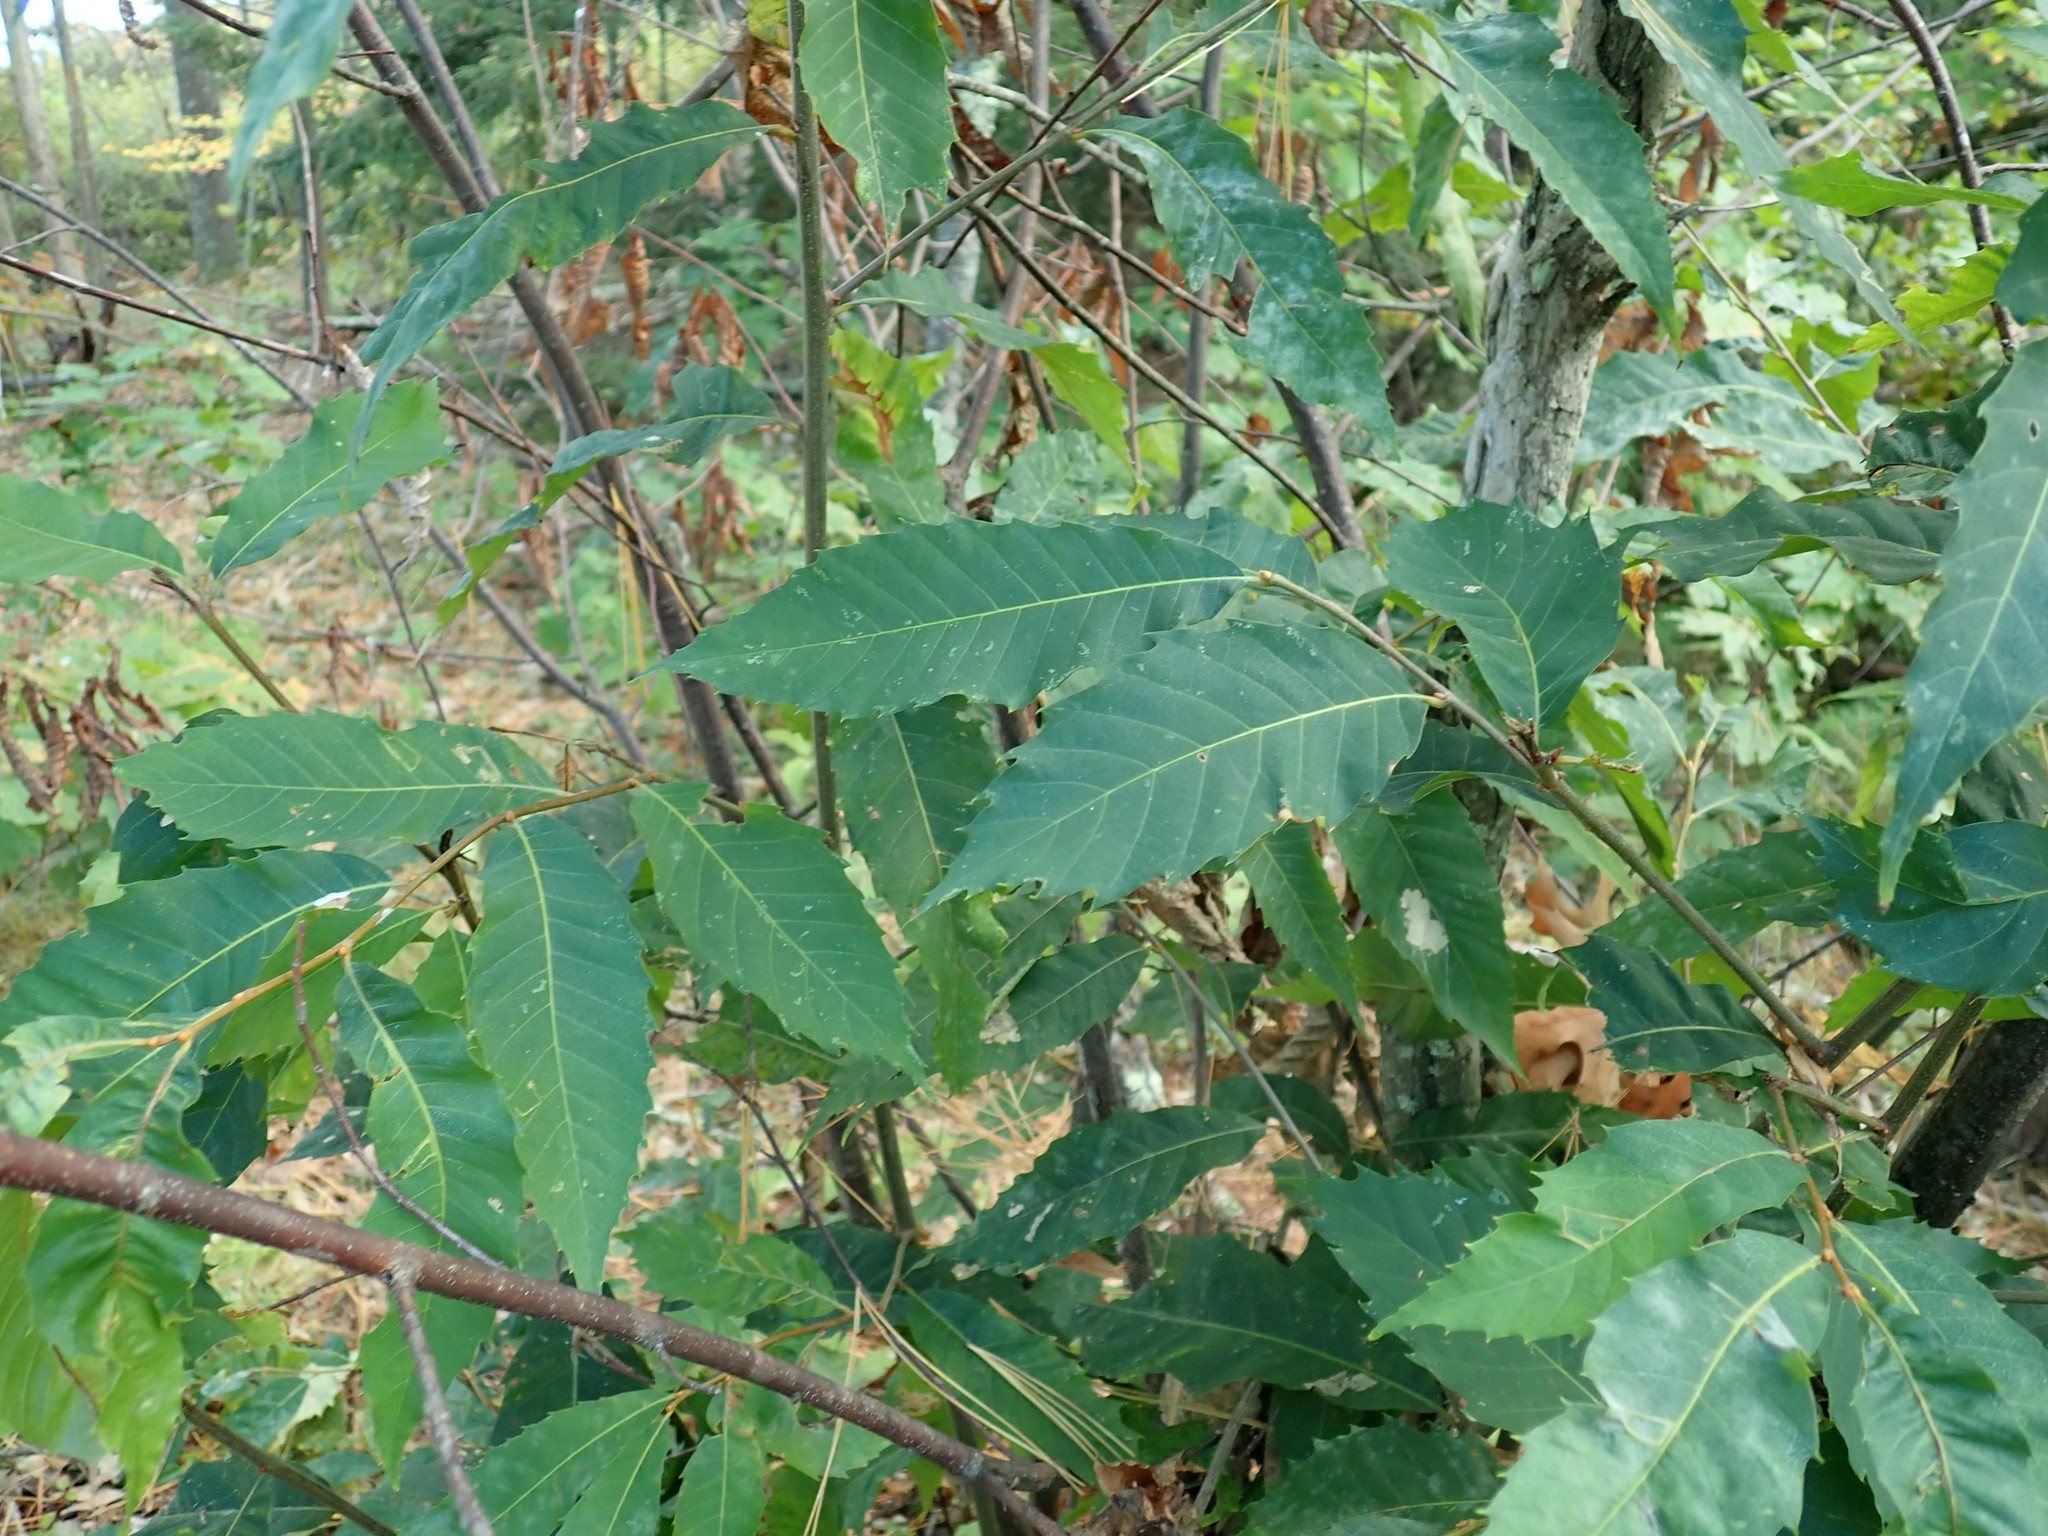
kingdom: Plantae
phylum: Tracheophyta
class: Magnoliopsida
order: Fagales
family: Fagaceae
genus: Castanea
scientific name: Castanea dentata
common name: American chestnut
